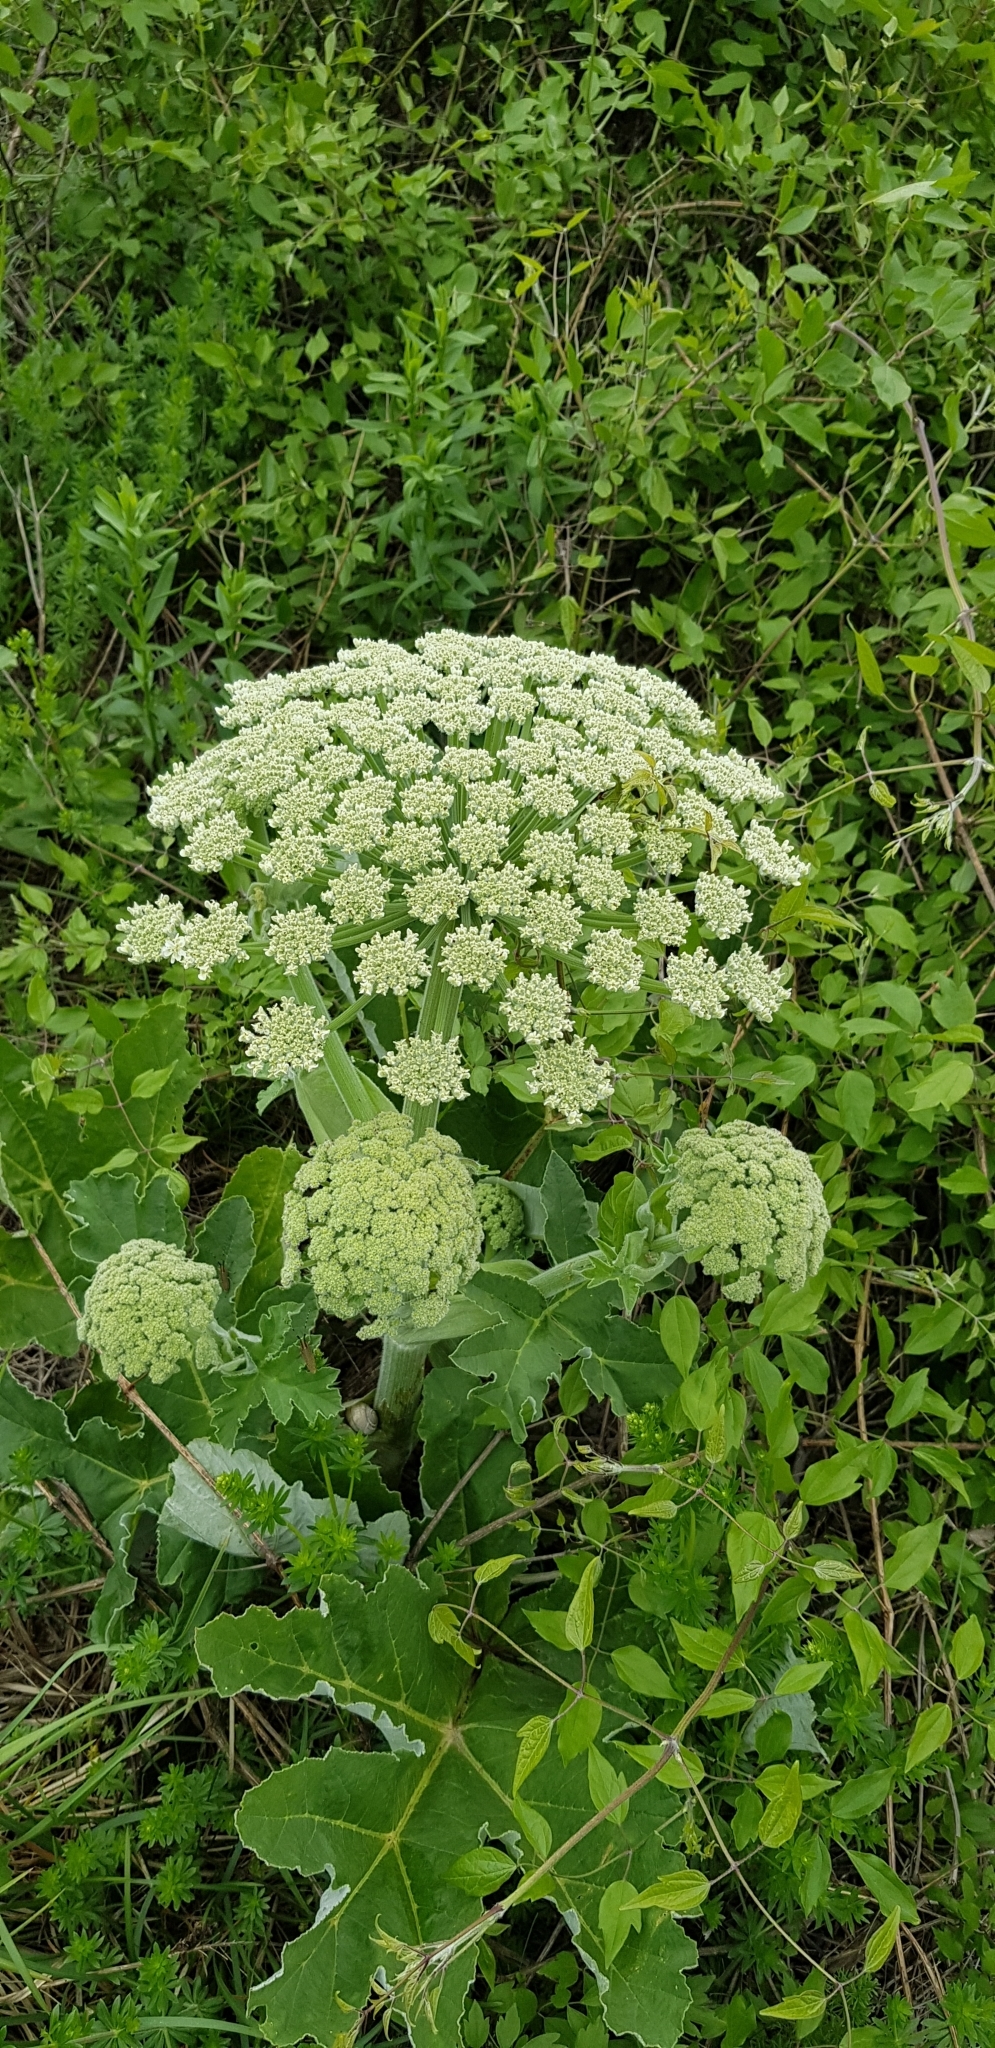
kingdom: Plantae
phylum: Tracheophyta
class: Magnoliopsida
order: Apiales
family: Apiaceae
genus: Heracleum
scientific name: Heracleum stevenii
